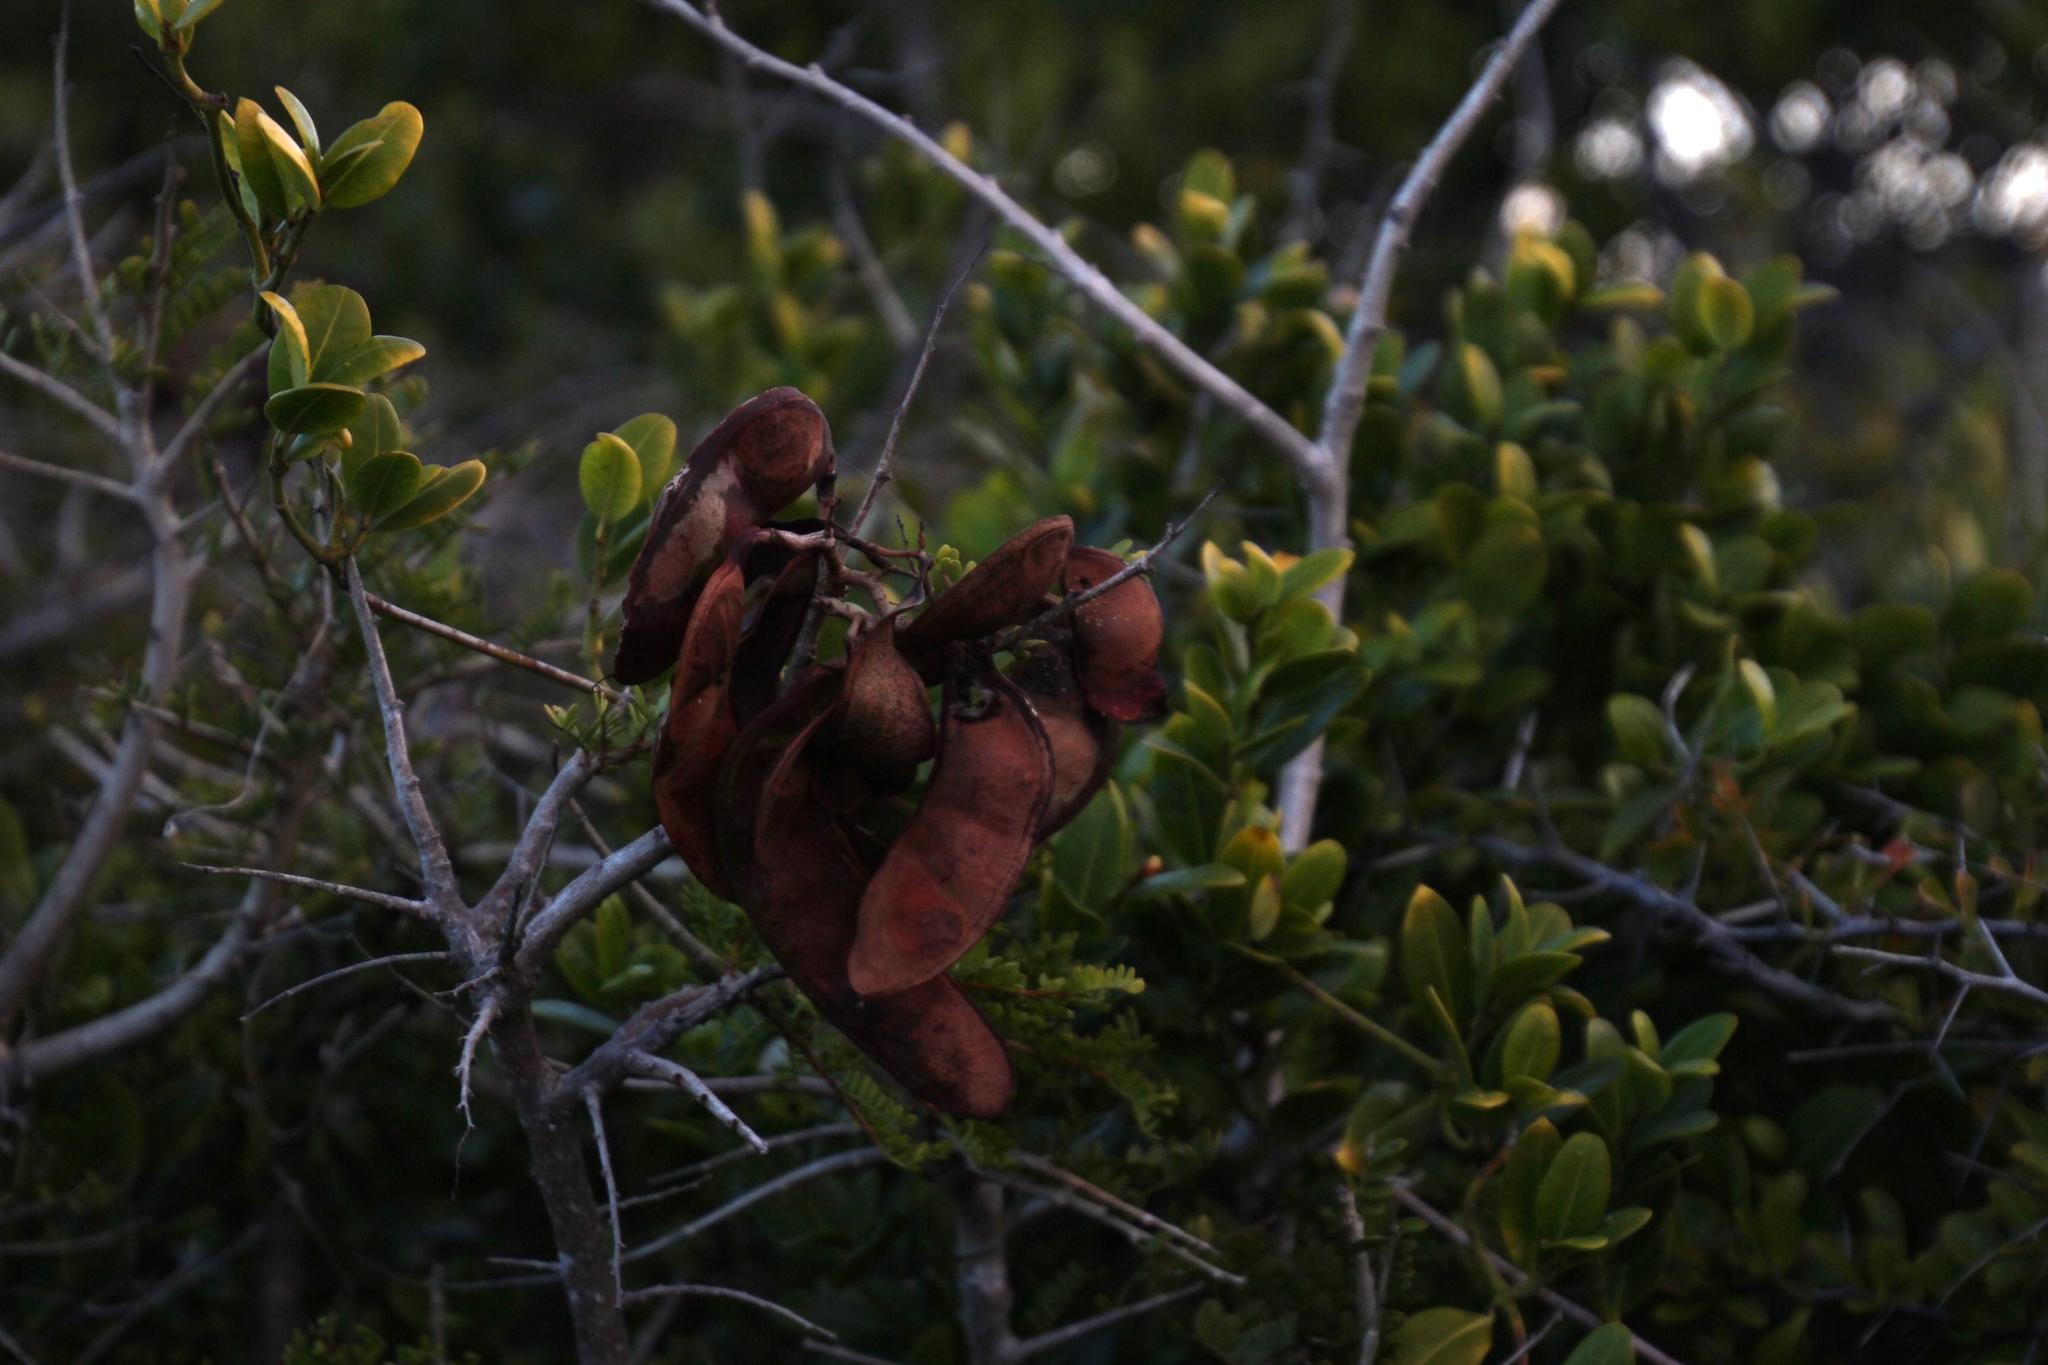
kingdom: Plantae
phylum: Tracheophyta
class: Magnoliopsida
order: Fabales
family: Fabaceae
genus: Schotia
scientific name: Schotia afra
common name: Hottentot's bean
